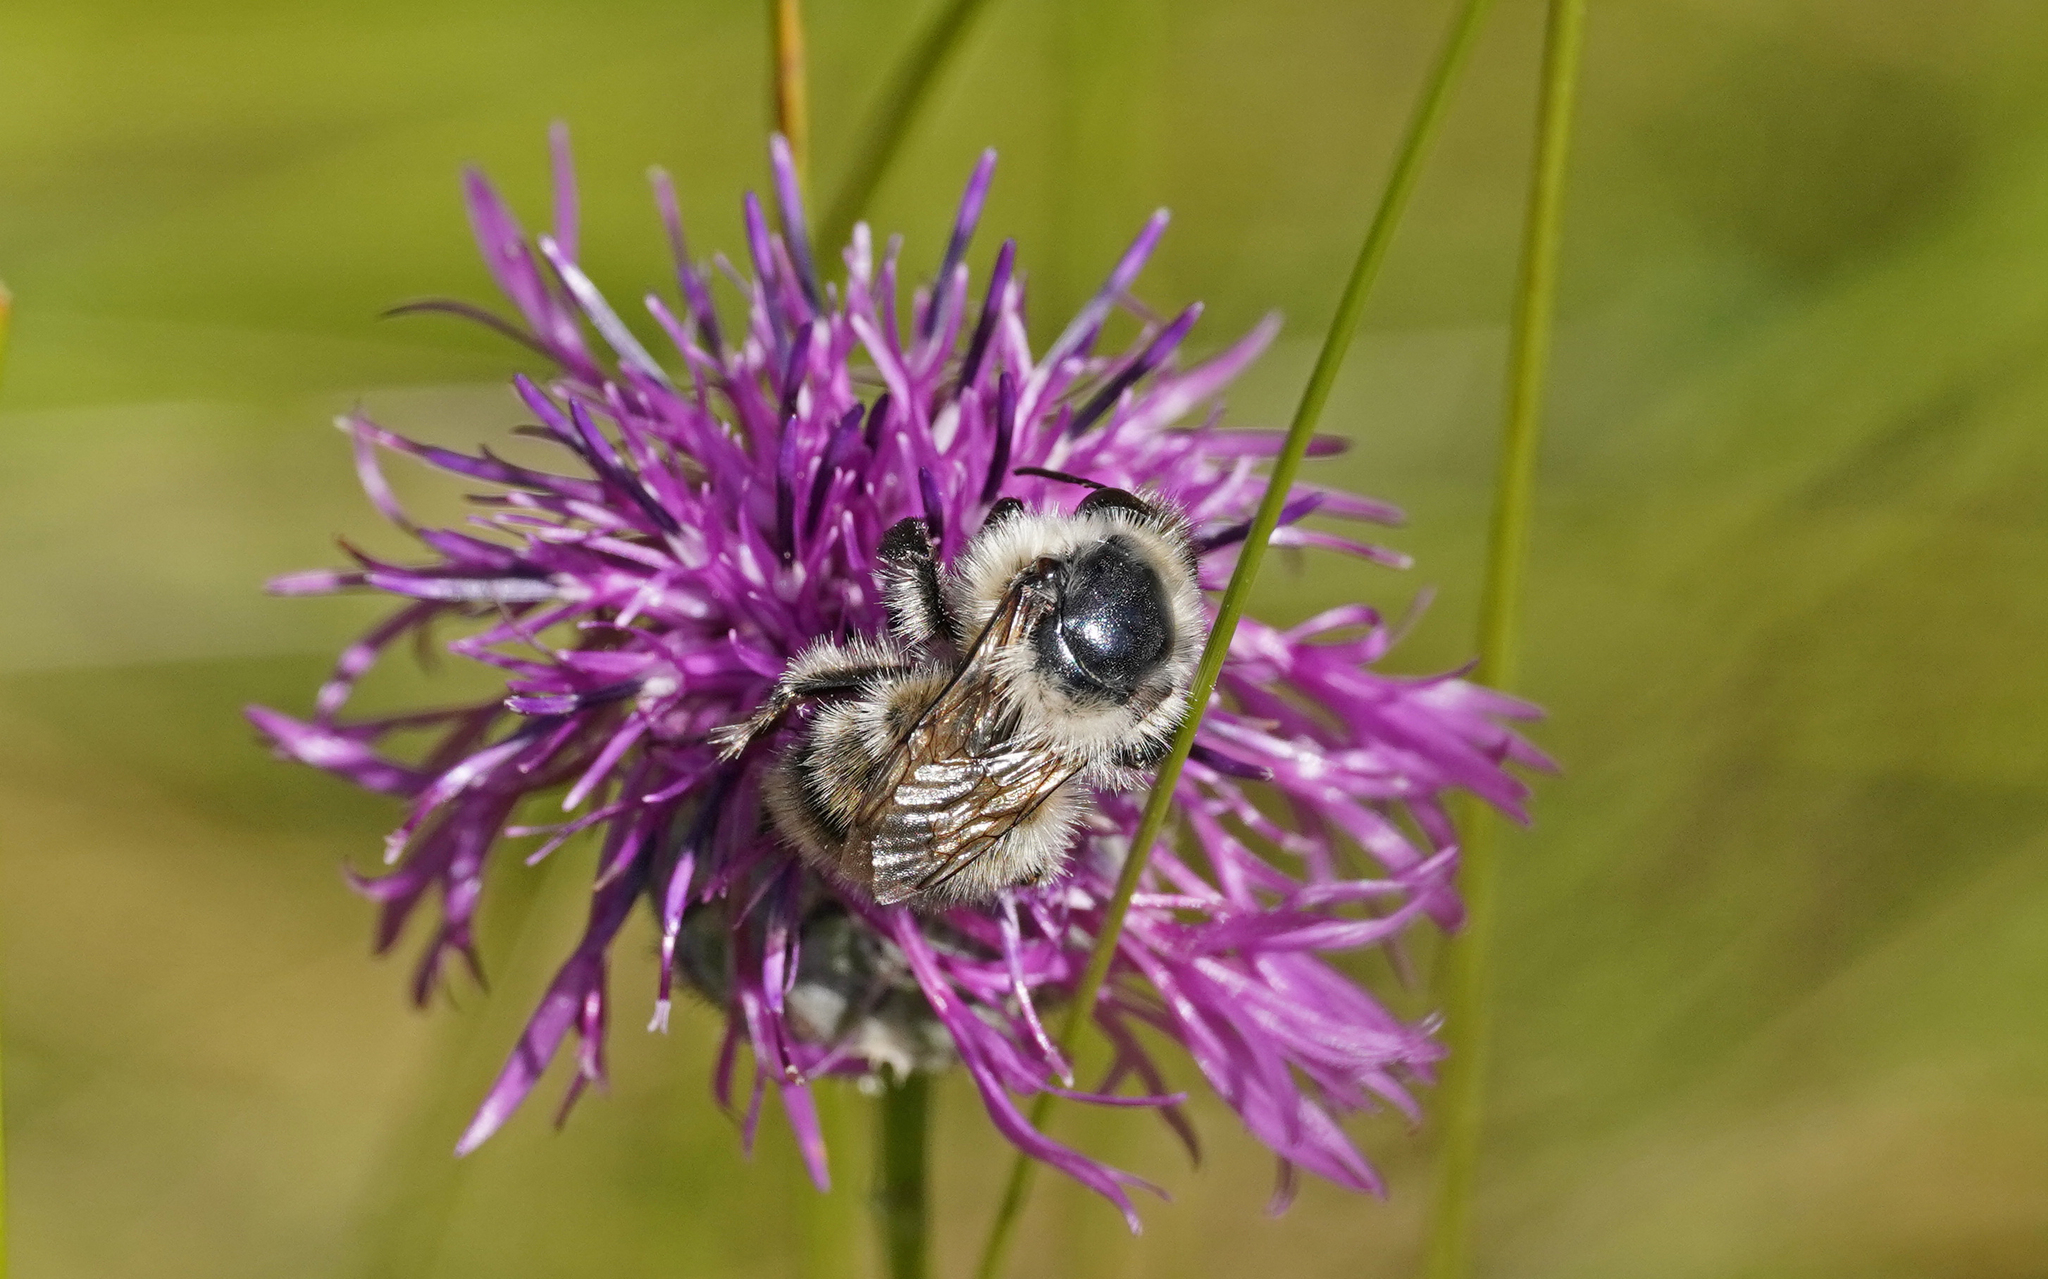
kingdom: Animalia
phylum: Arthropoda
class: Insecta
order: Hymenoptera
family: Apidae
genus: Bombus
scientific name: Bombus sylvarum
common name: Shrill carder bee
